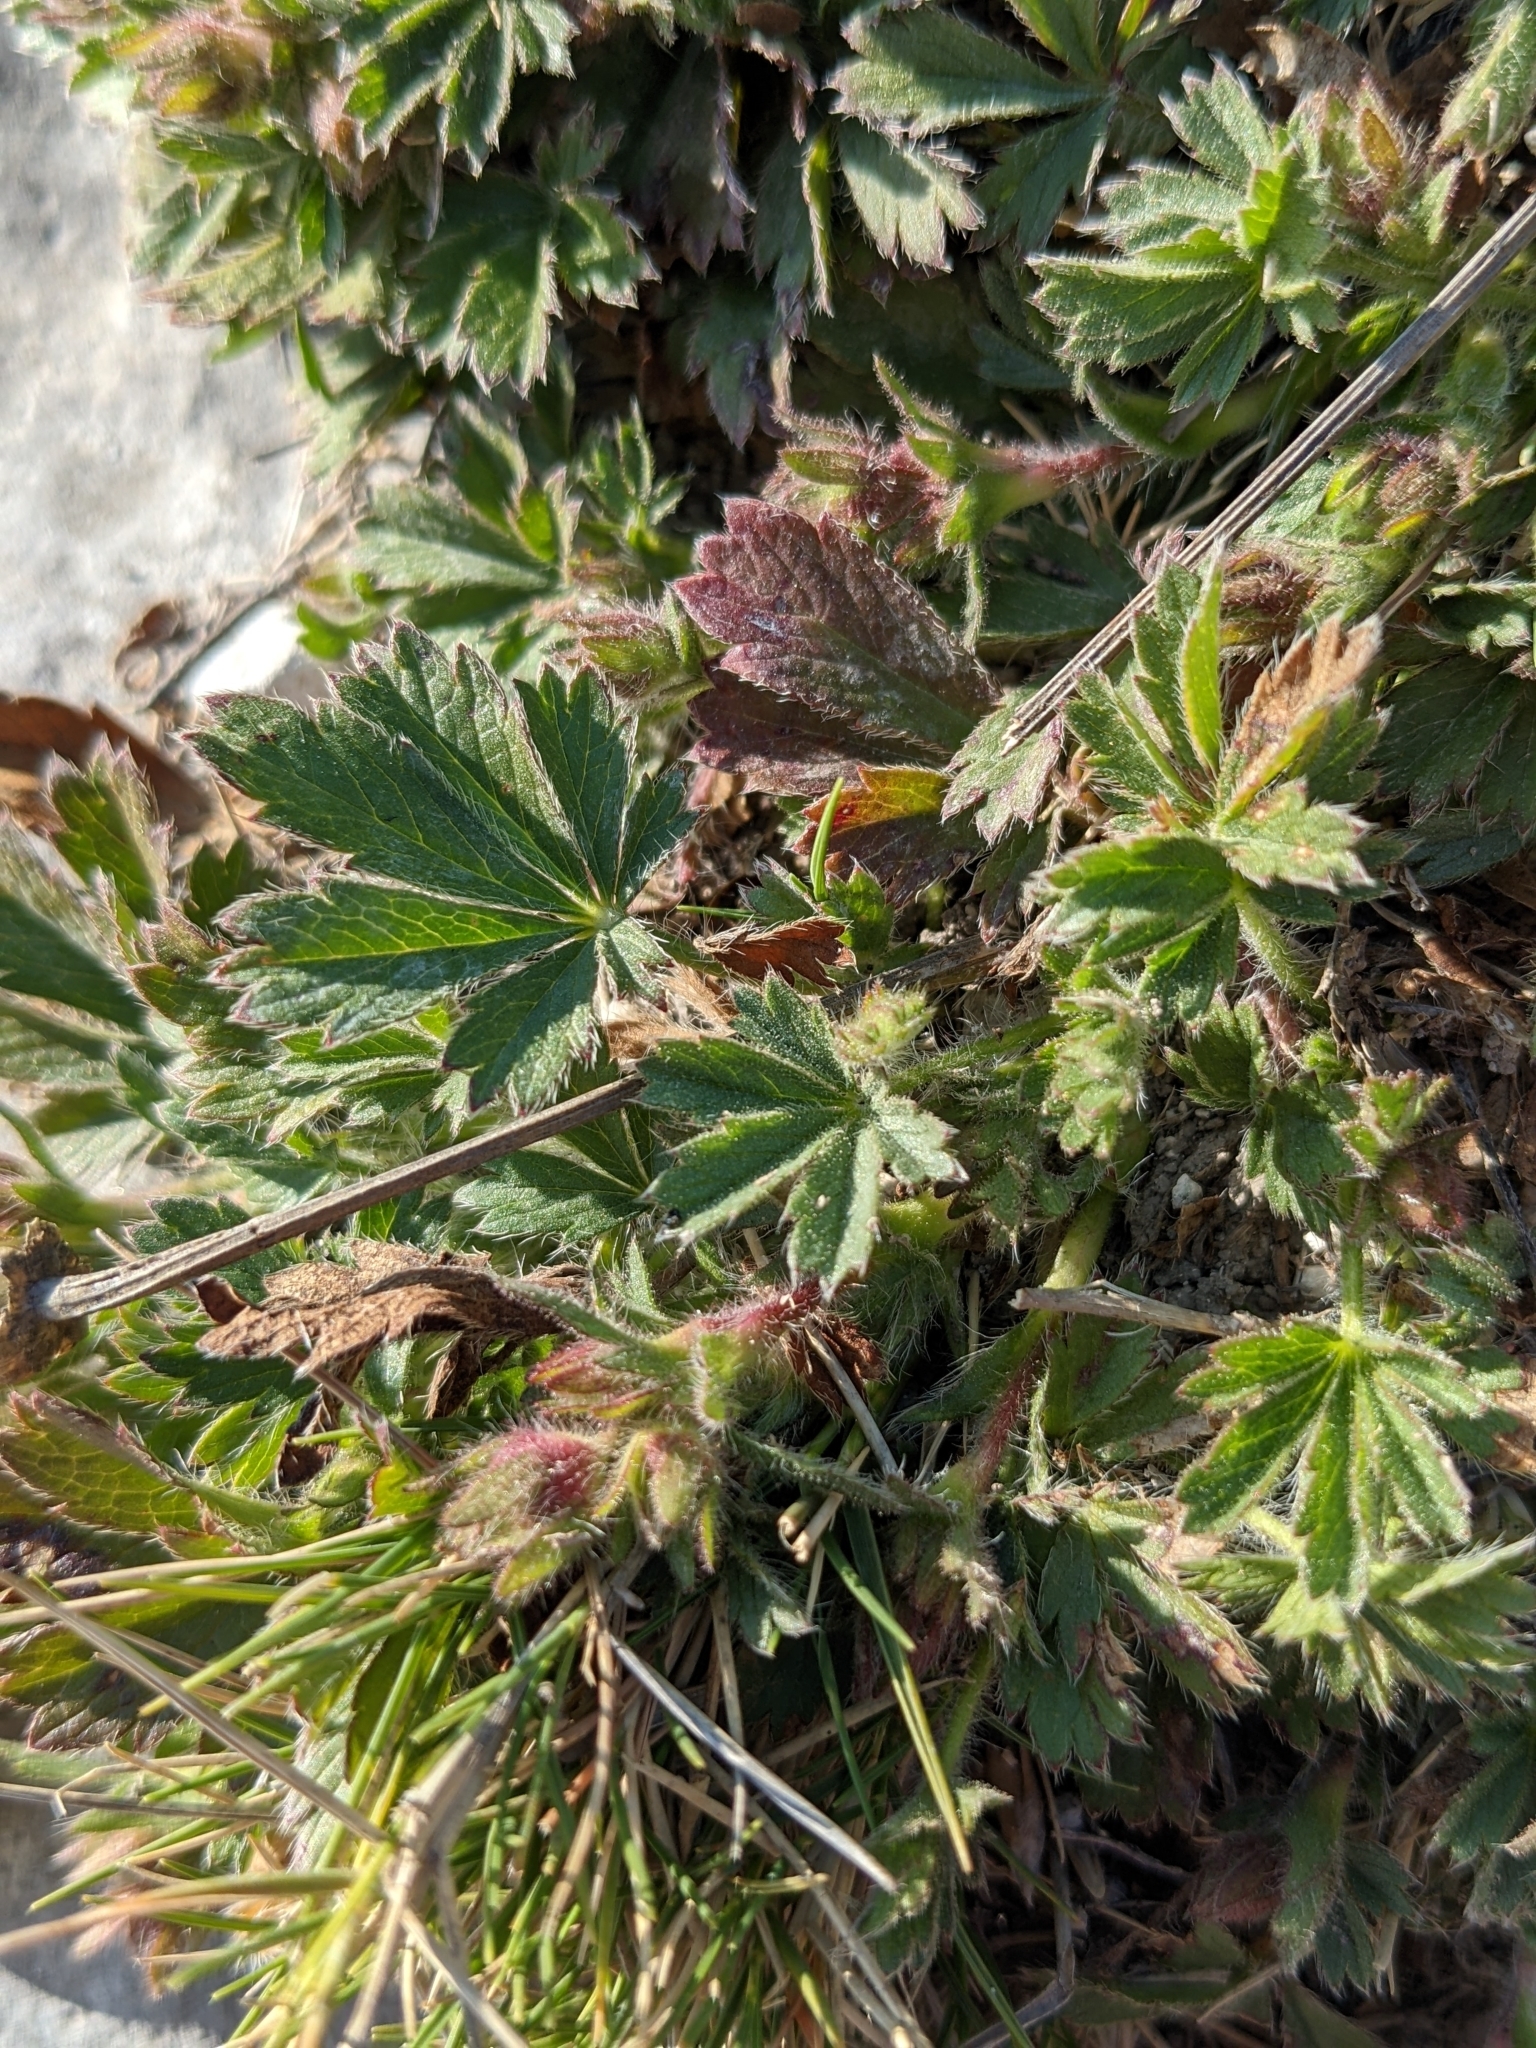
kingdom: Plantae
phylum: Tracheophyta
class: Magnoliopsida
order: Rosales
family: Rosaceae
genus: Potentilla
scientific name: Potentilla verna
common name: Spring cinquefoil
